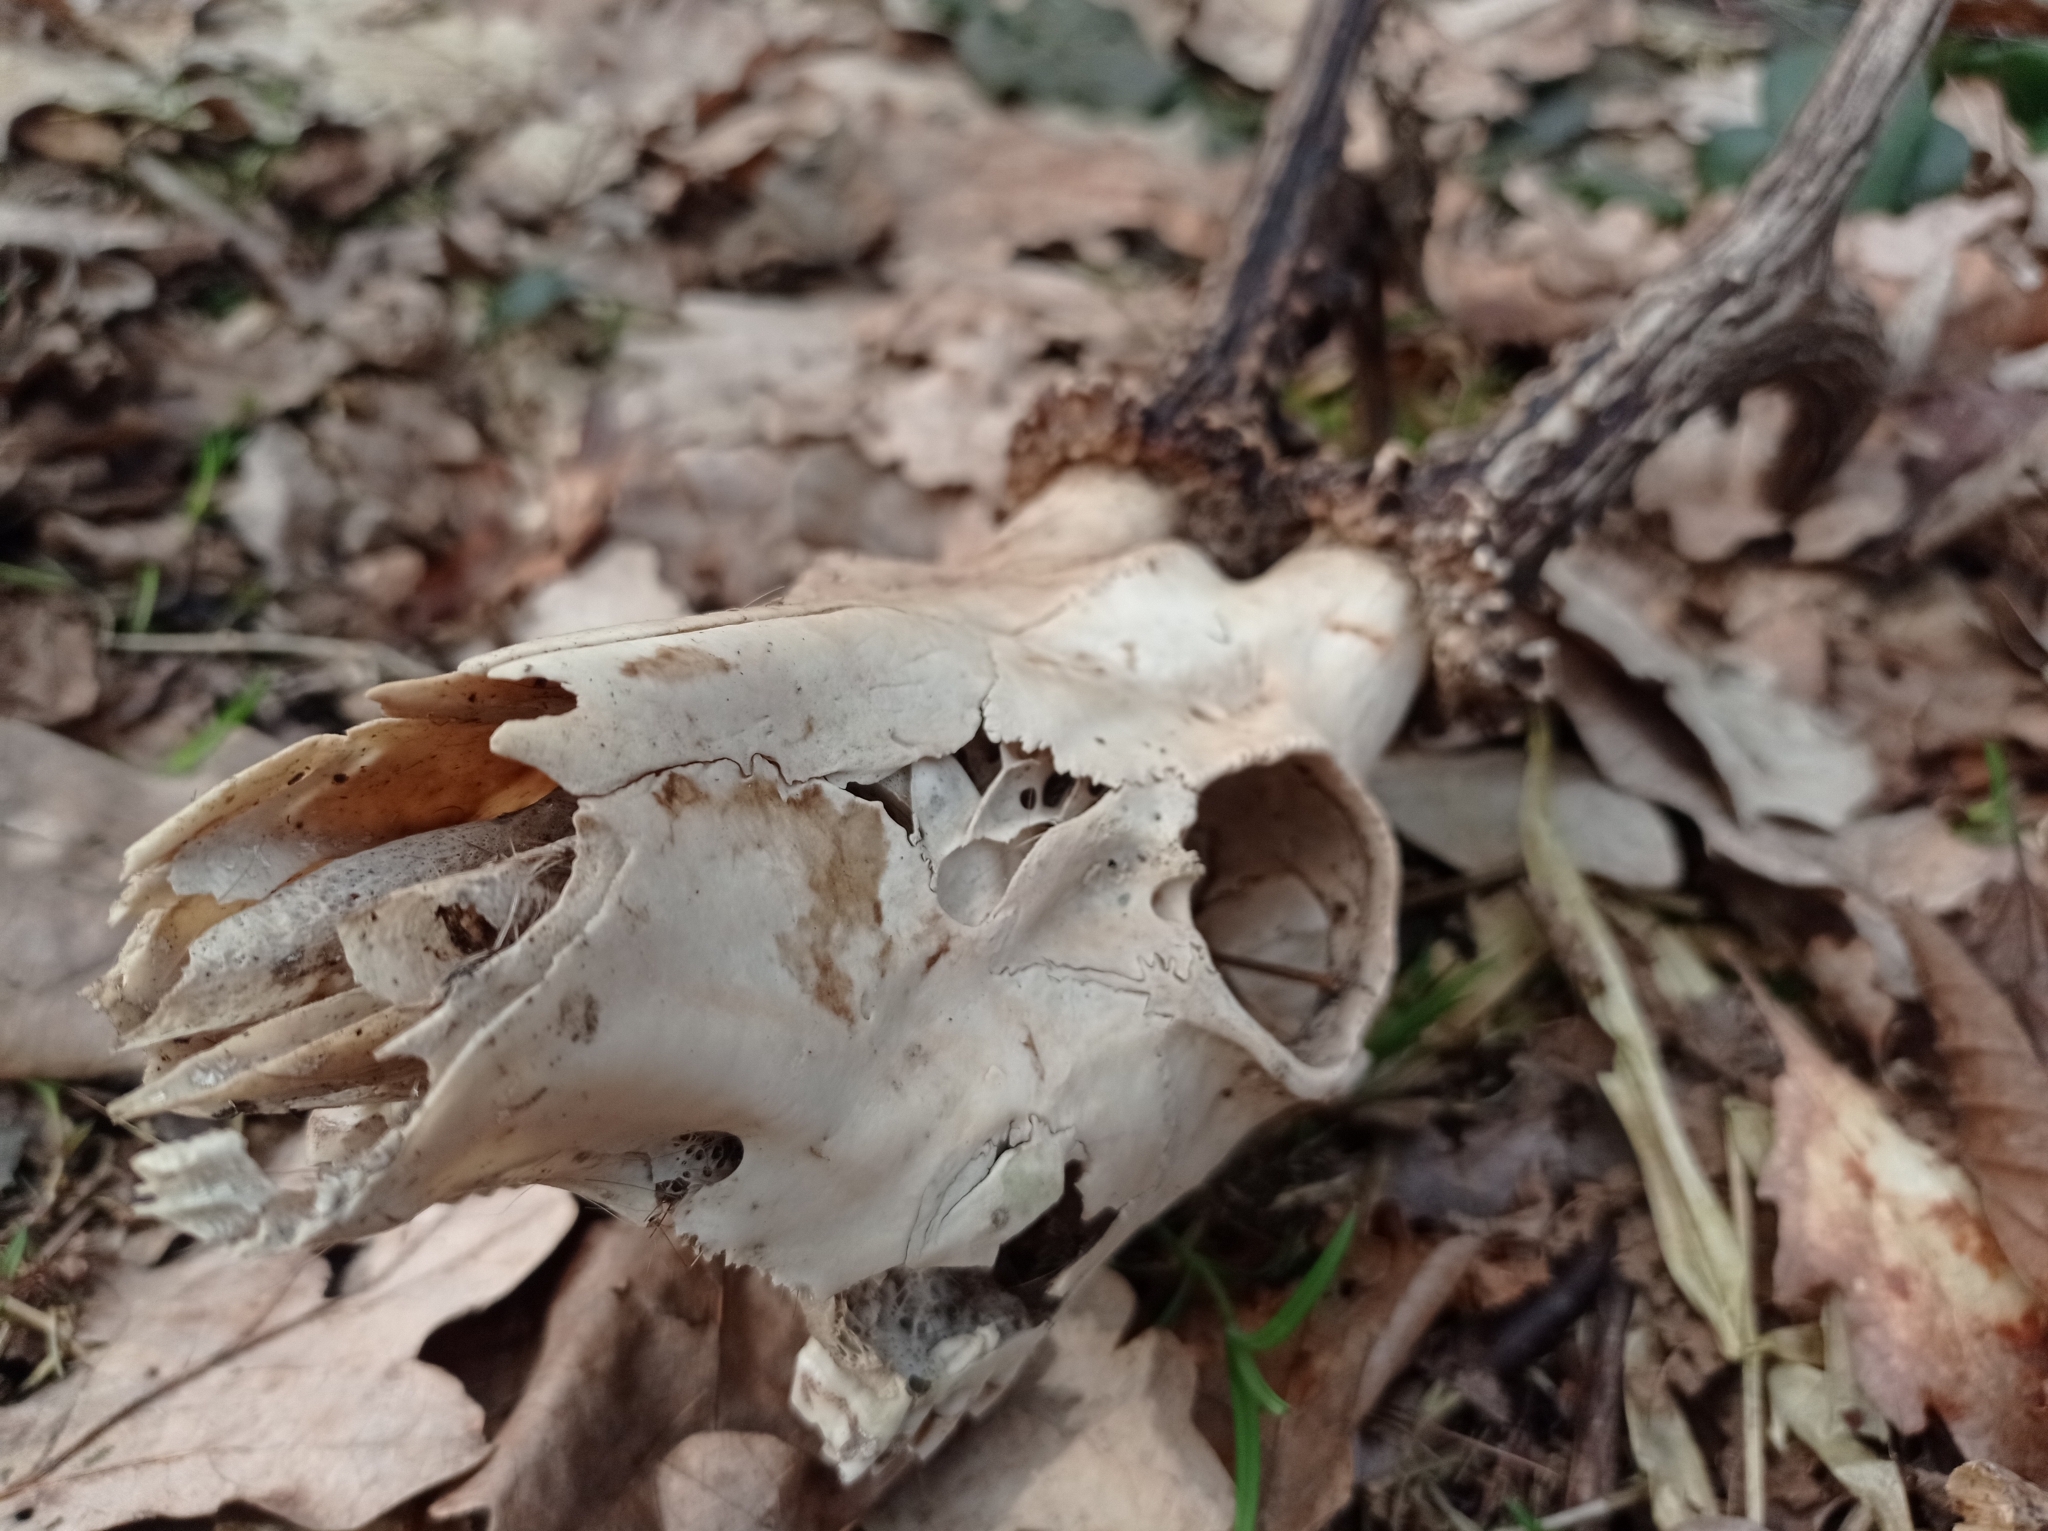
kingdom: Animalia
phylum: Chordata
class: Mammalia
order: Artiodactyla
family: Cervidae
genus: Capreolus
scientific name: Capreolus capreolus
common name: Western roe deer
